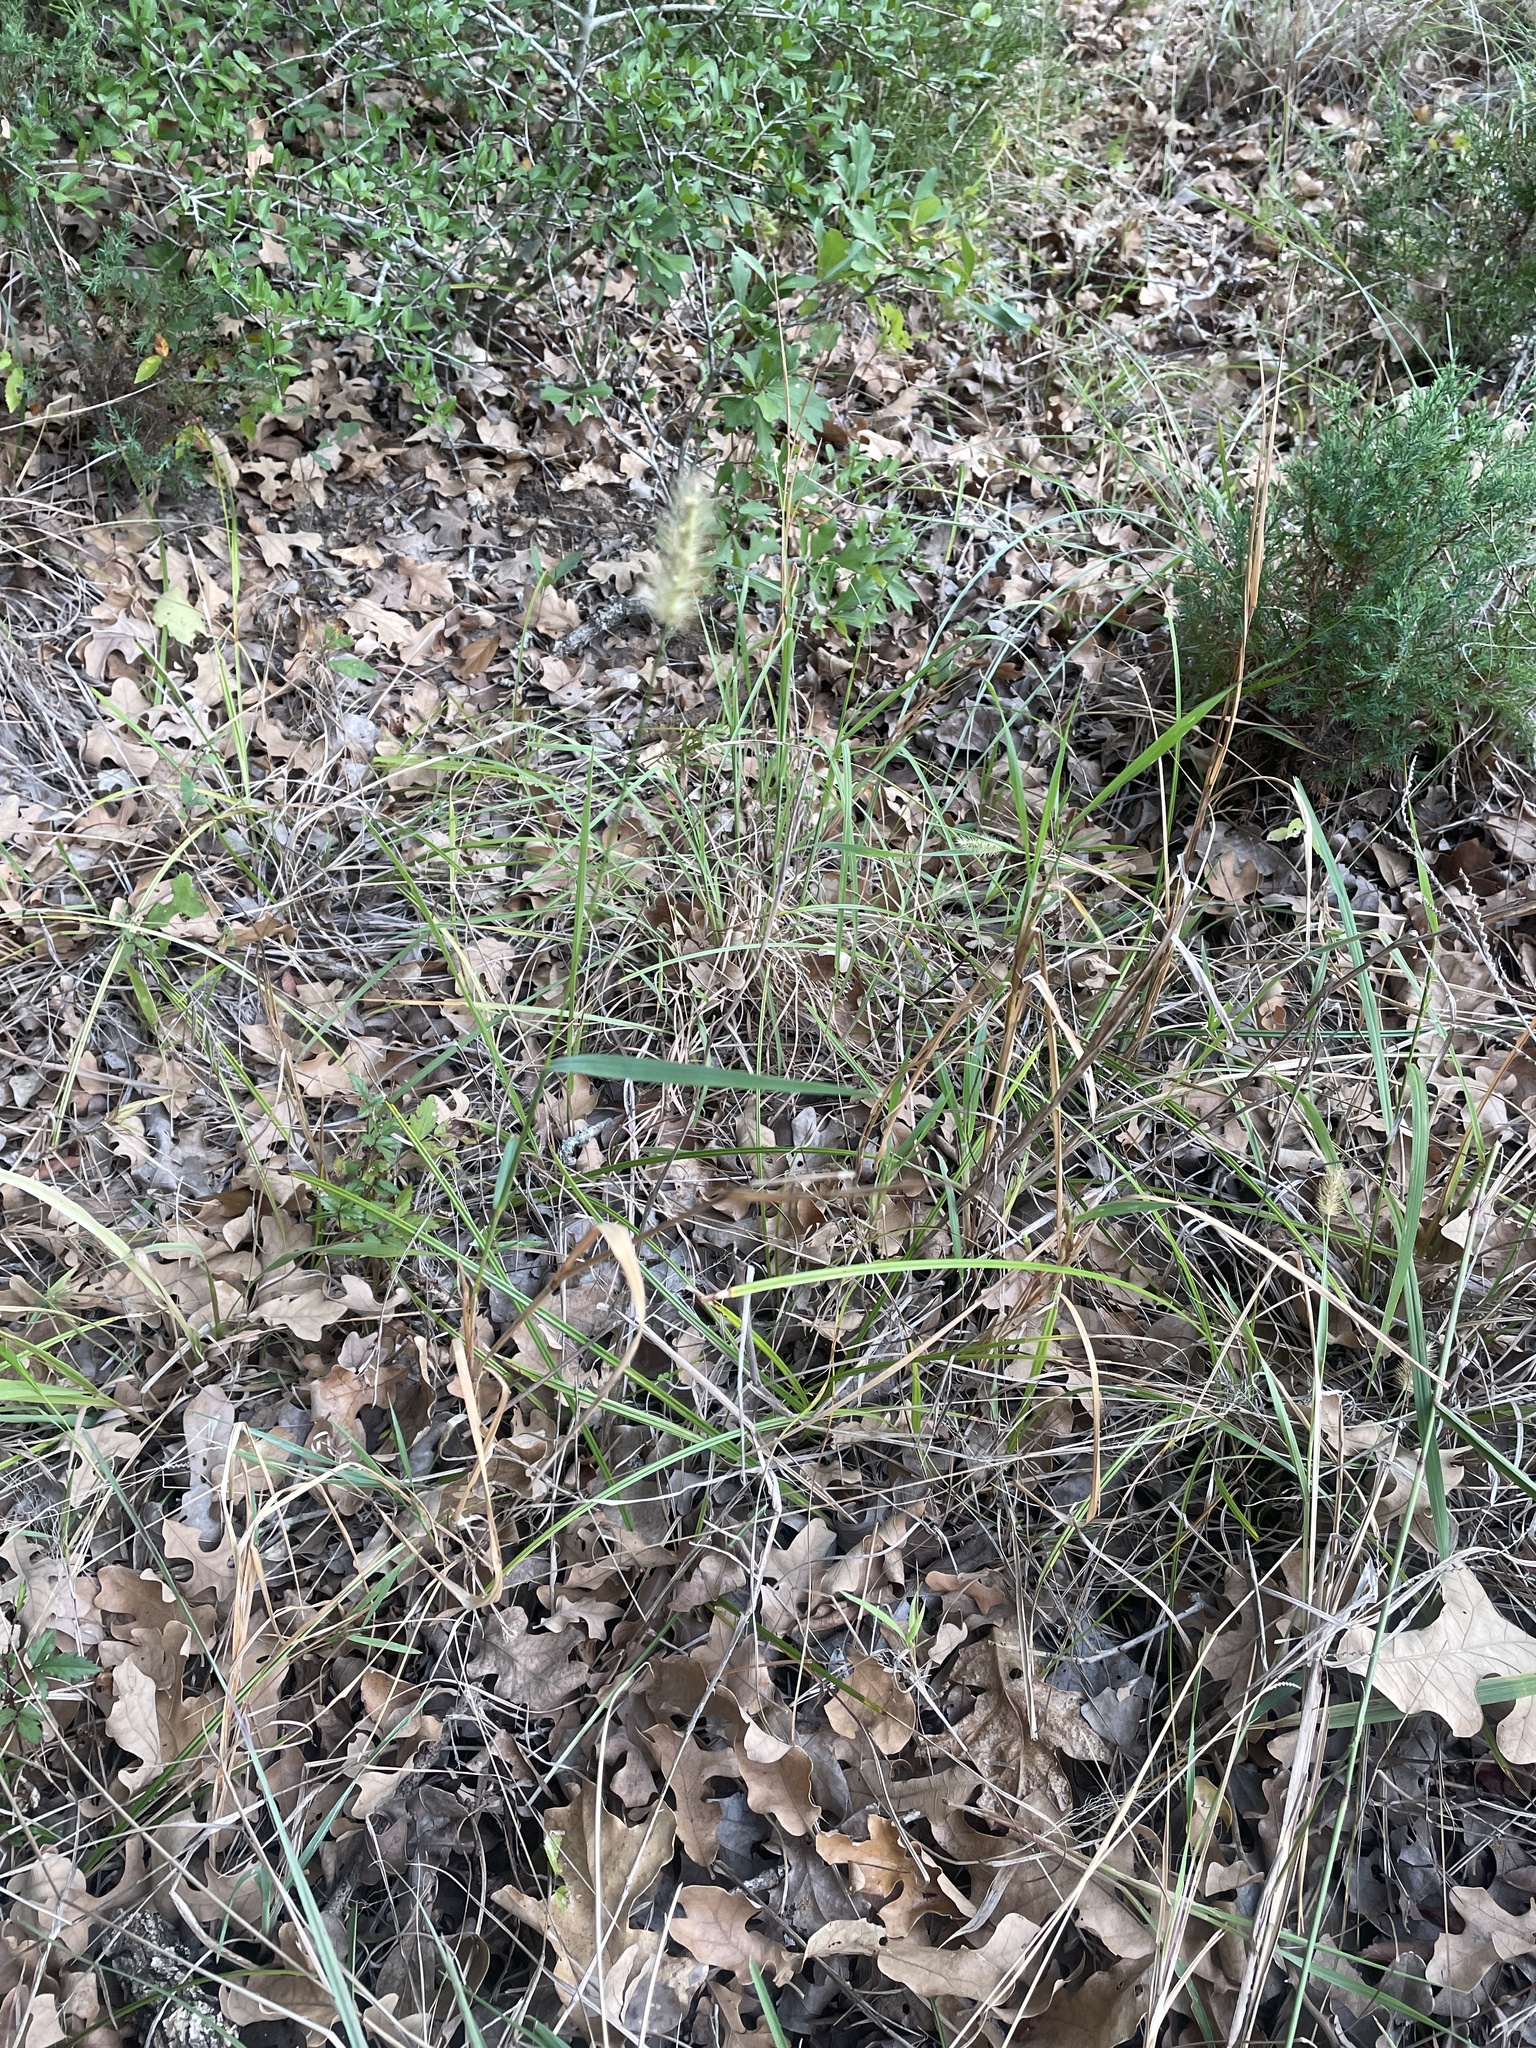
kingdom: Plantae
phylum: Tracheophyta
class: Liliopsida
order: Poales
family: Poaceae
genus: Setaria
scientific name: Setaria parviflora
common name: Knotroot bristle-grass
